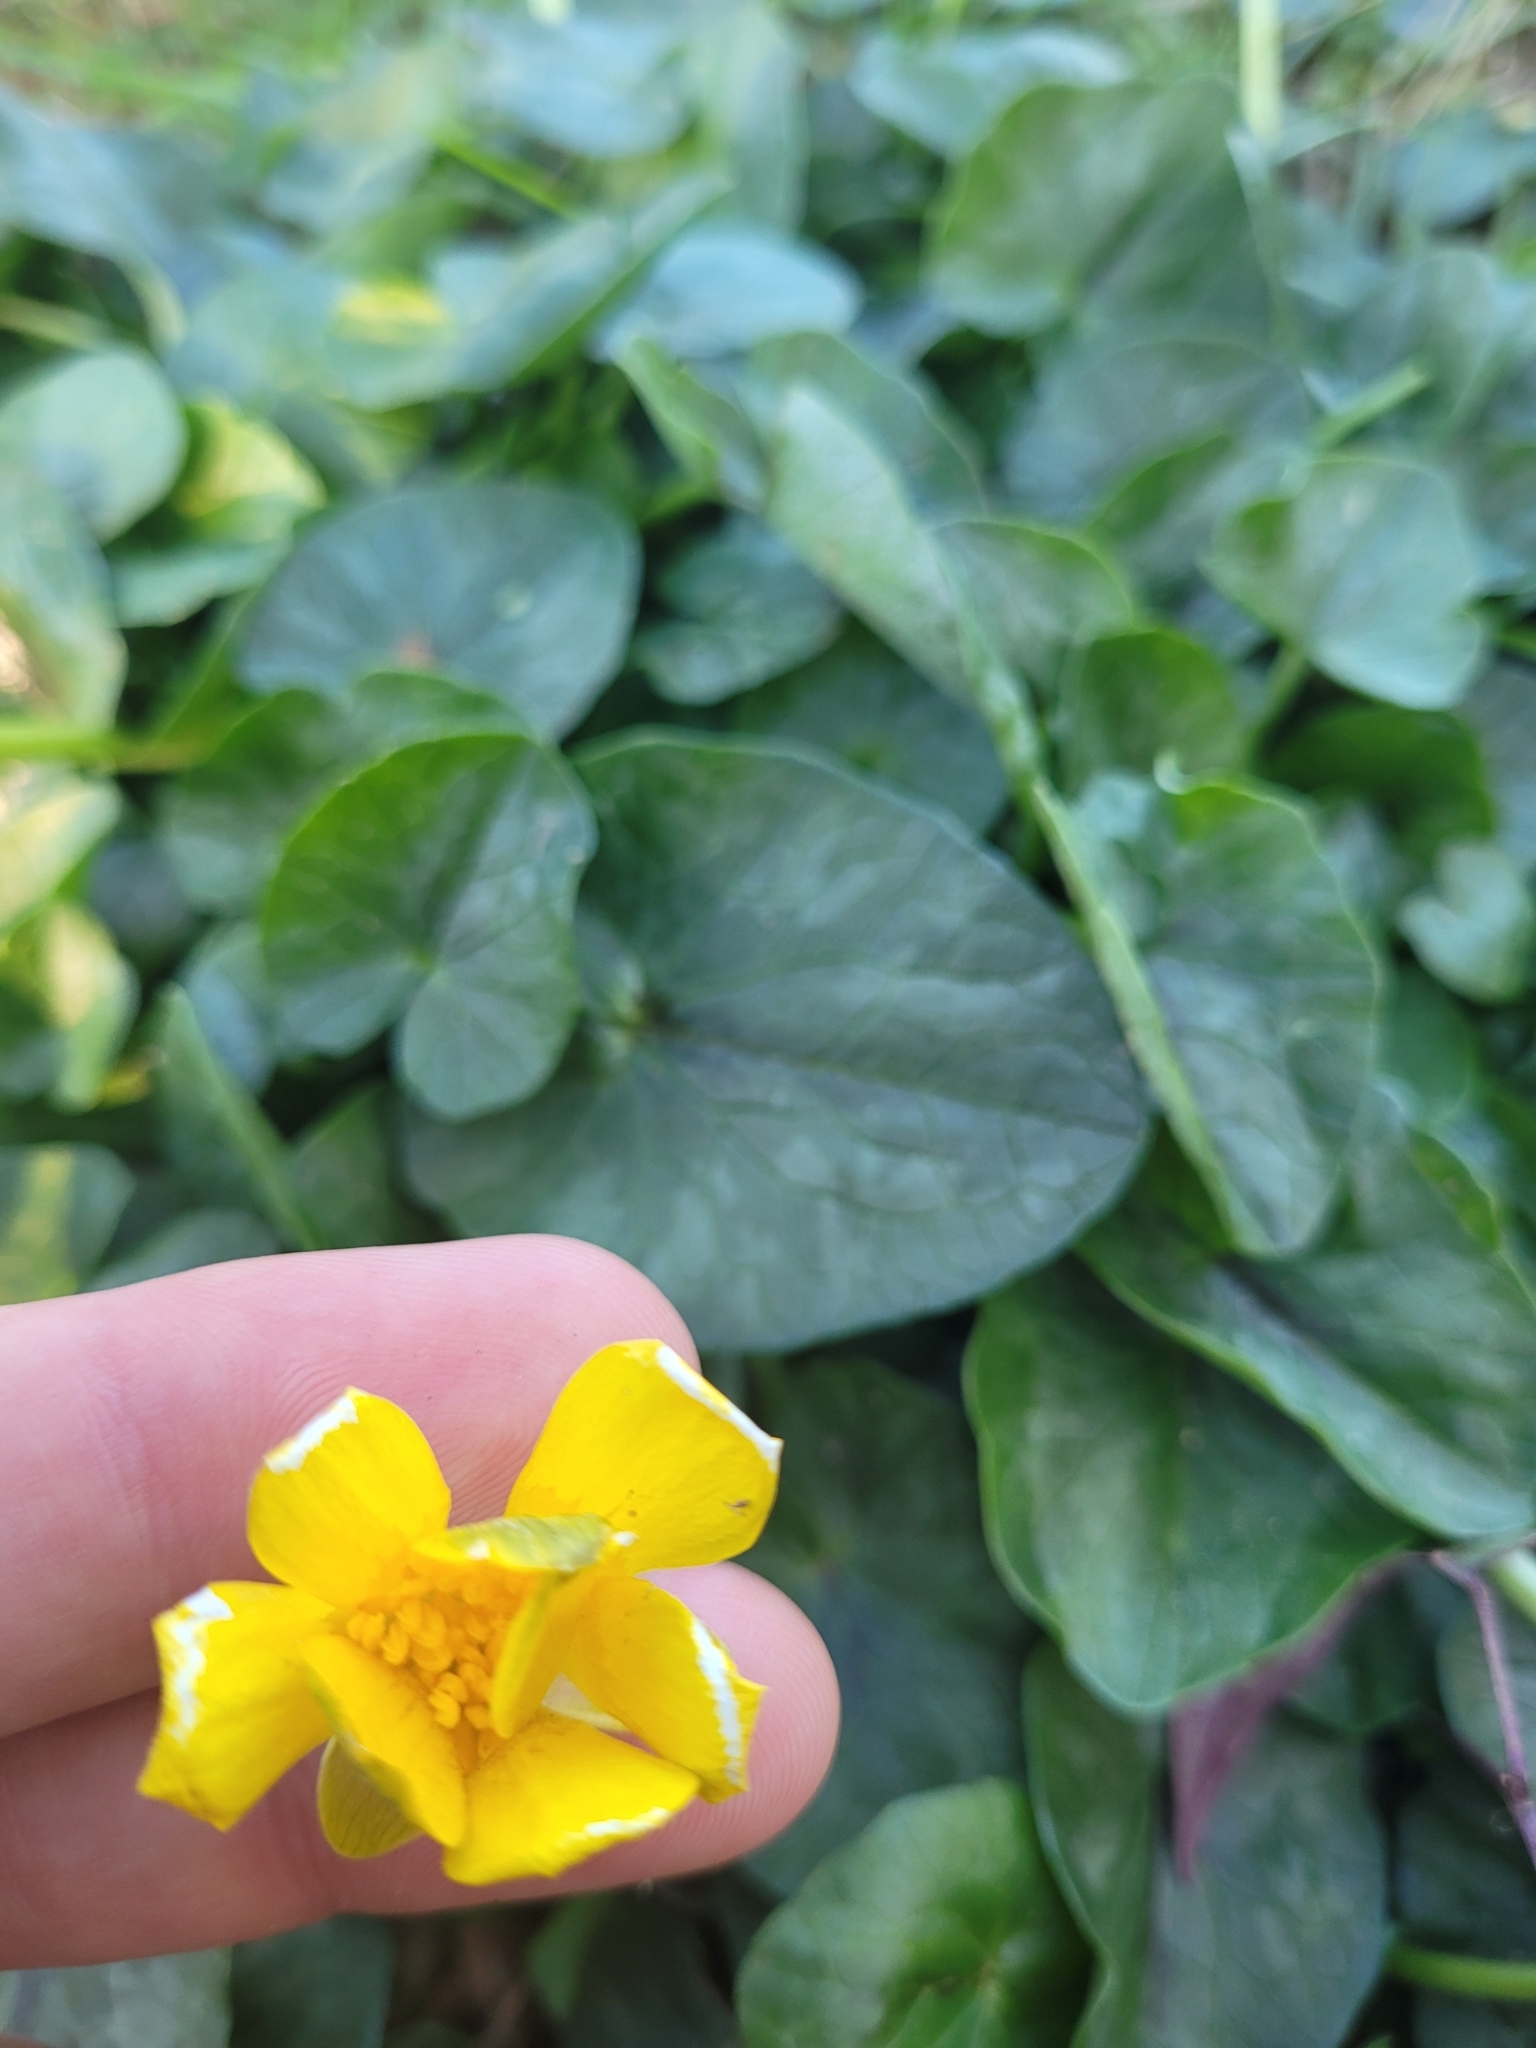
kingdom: Plantae
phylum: Tracheophyta
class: Magnoliopsida
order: Ranunculales
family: Ranunculaceae
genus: Ficaria
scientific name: Ficaria verna
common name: Lesser celandine
